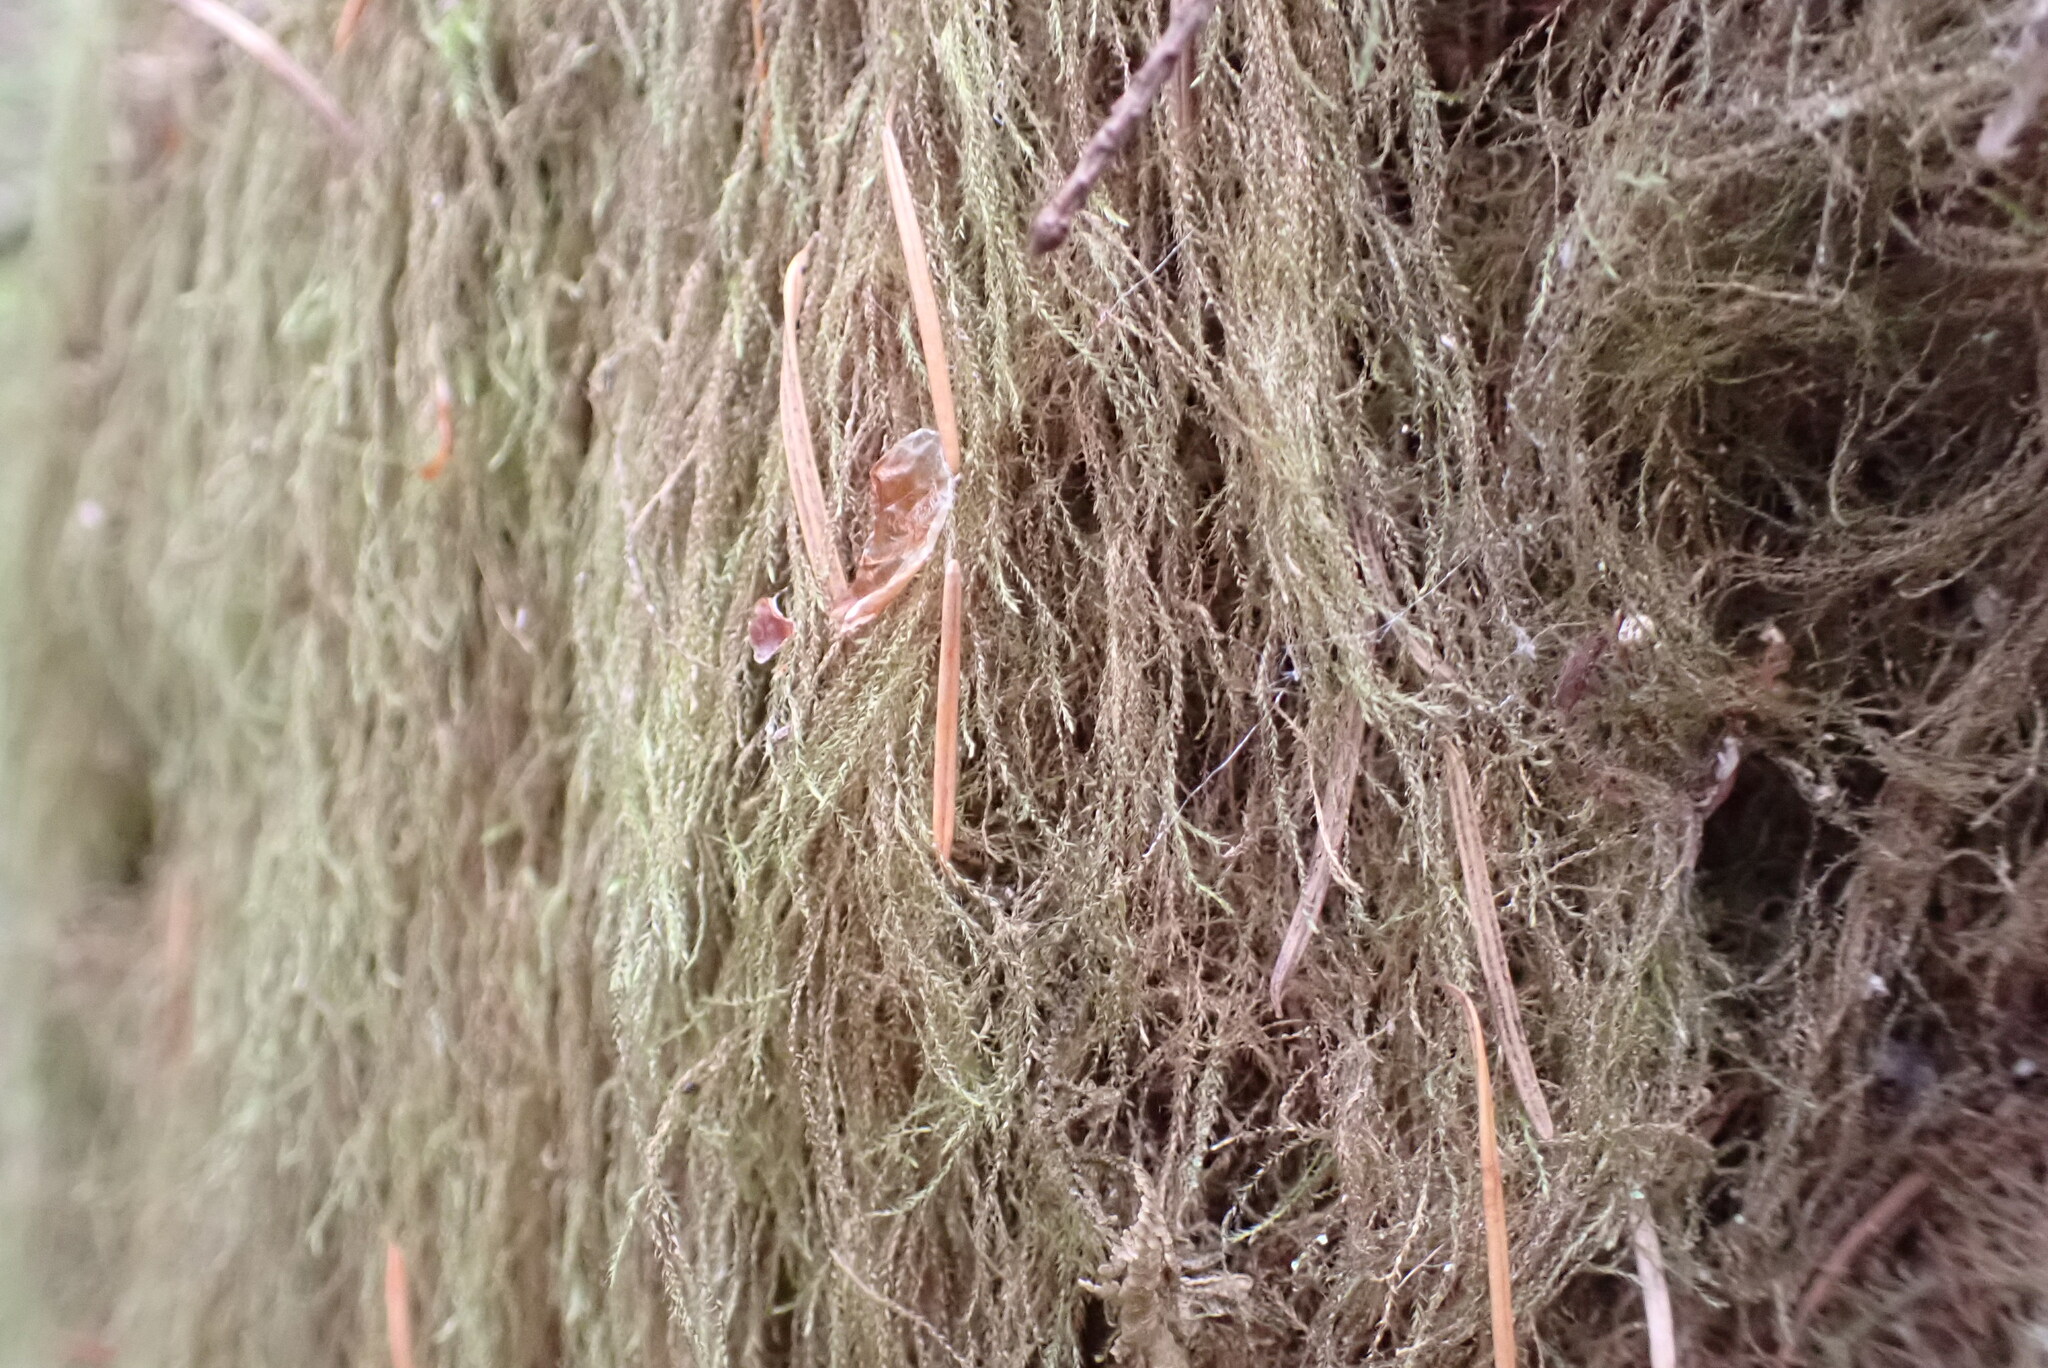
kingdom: Plantae
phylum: Bryophyta
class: Bryopsida
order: Hypnales
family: Lembophyllaceae
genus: Pseudisothecium
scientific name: Pseudisothecium stoloniferum
